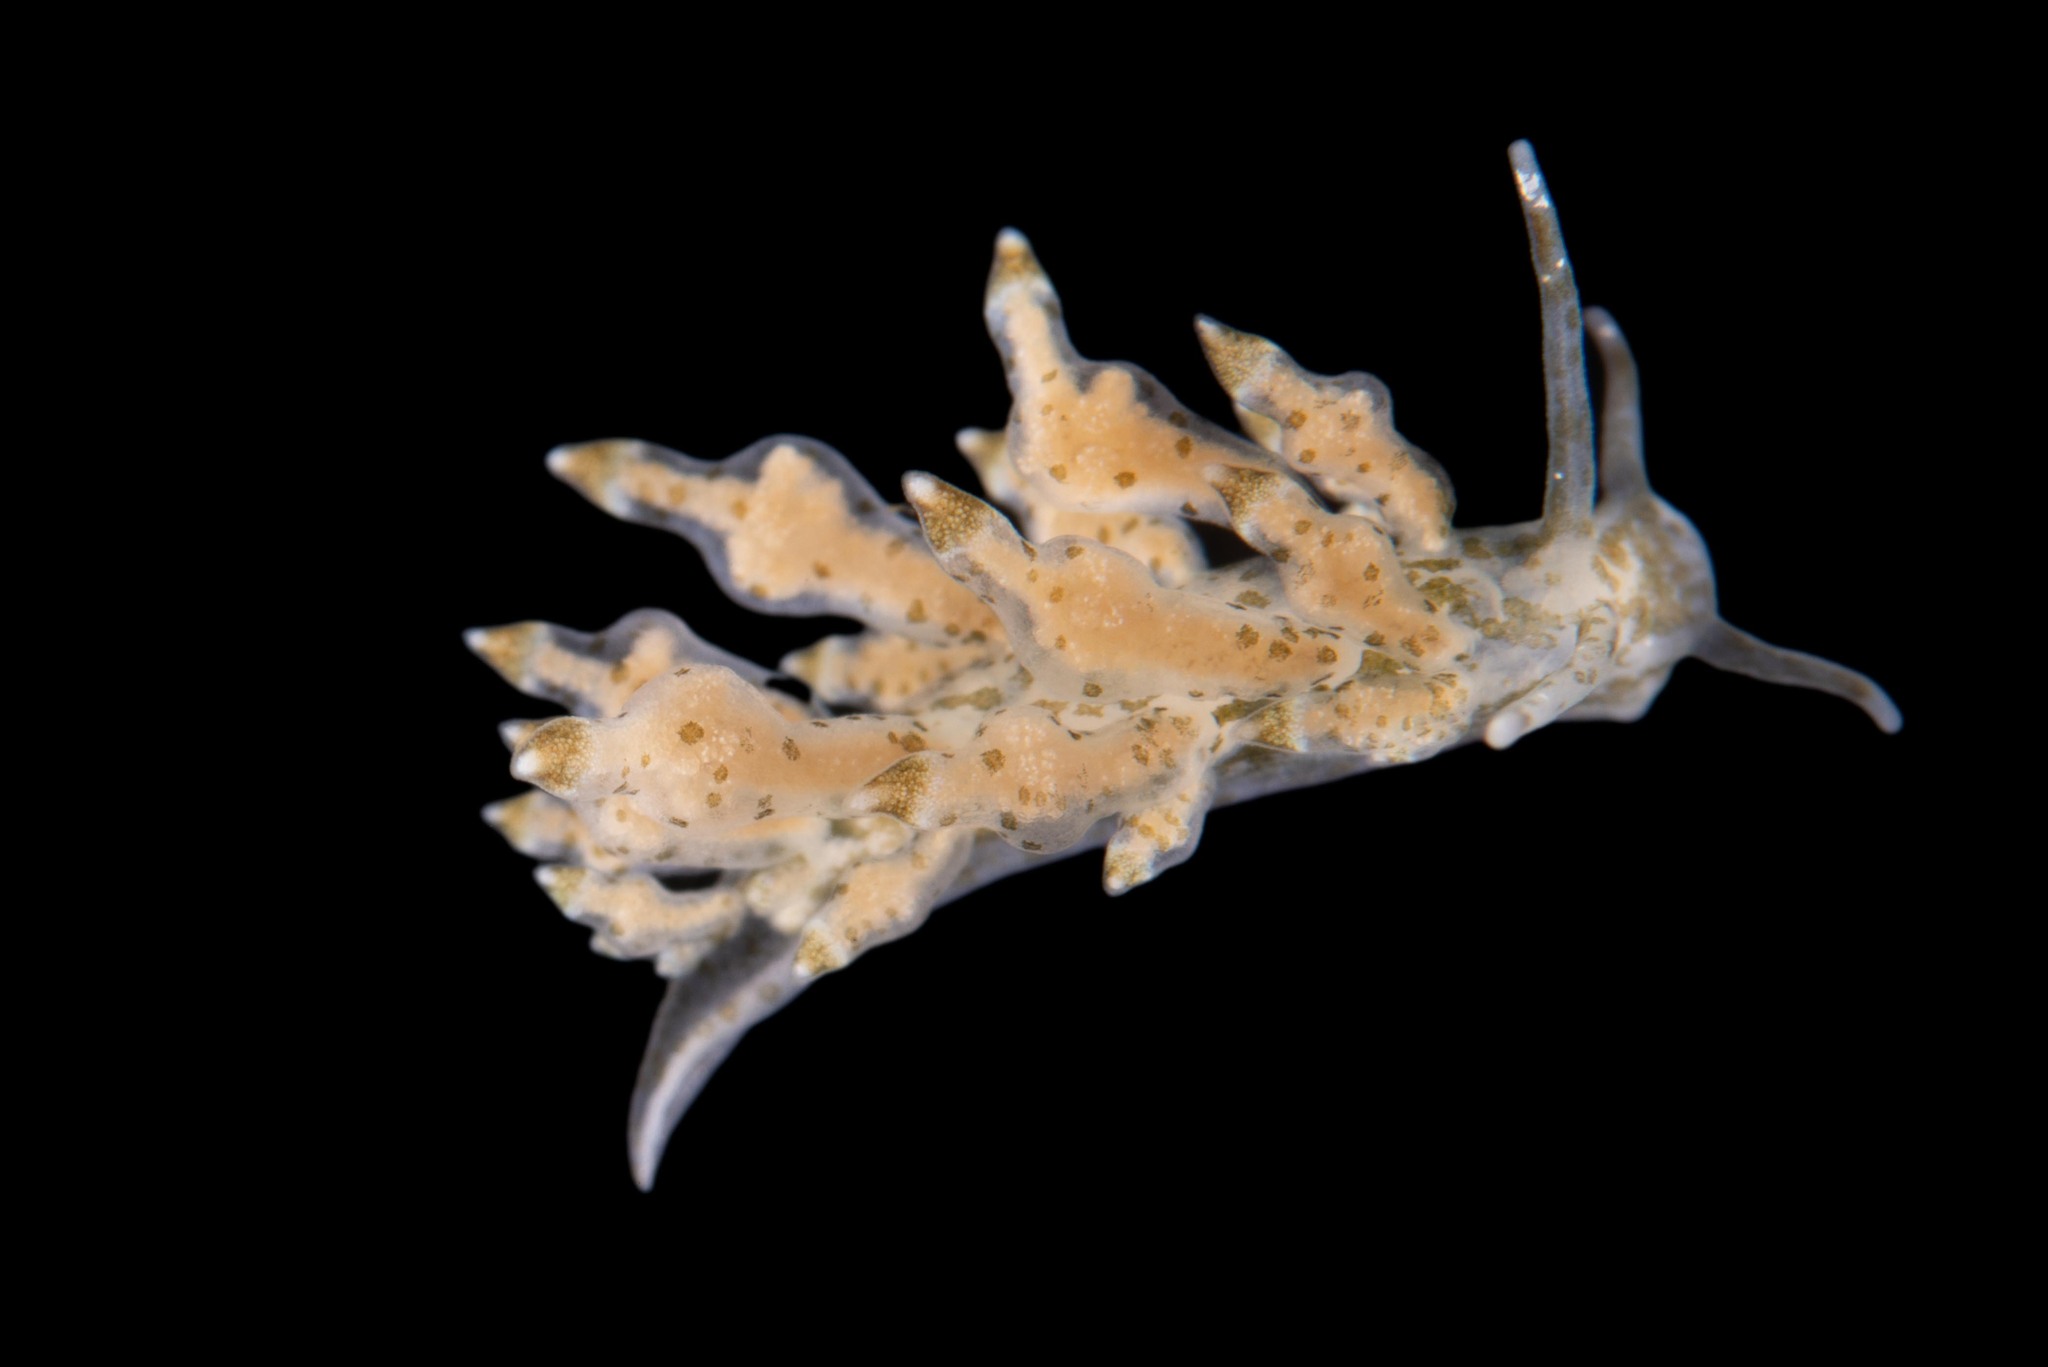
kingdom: Animalia
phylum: Mollusca
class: Gastropoda
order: Nudibranchia
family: Eubranchidae
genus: Eubranchus
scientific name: Eubranchus scintillans
